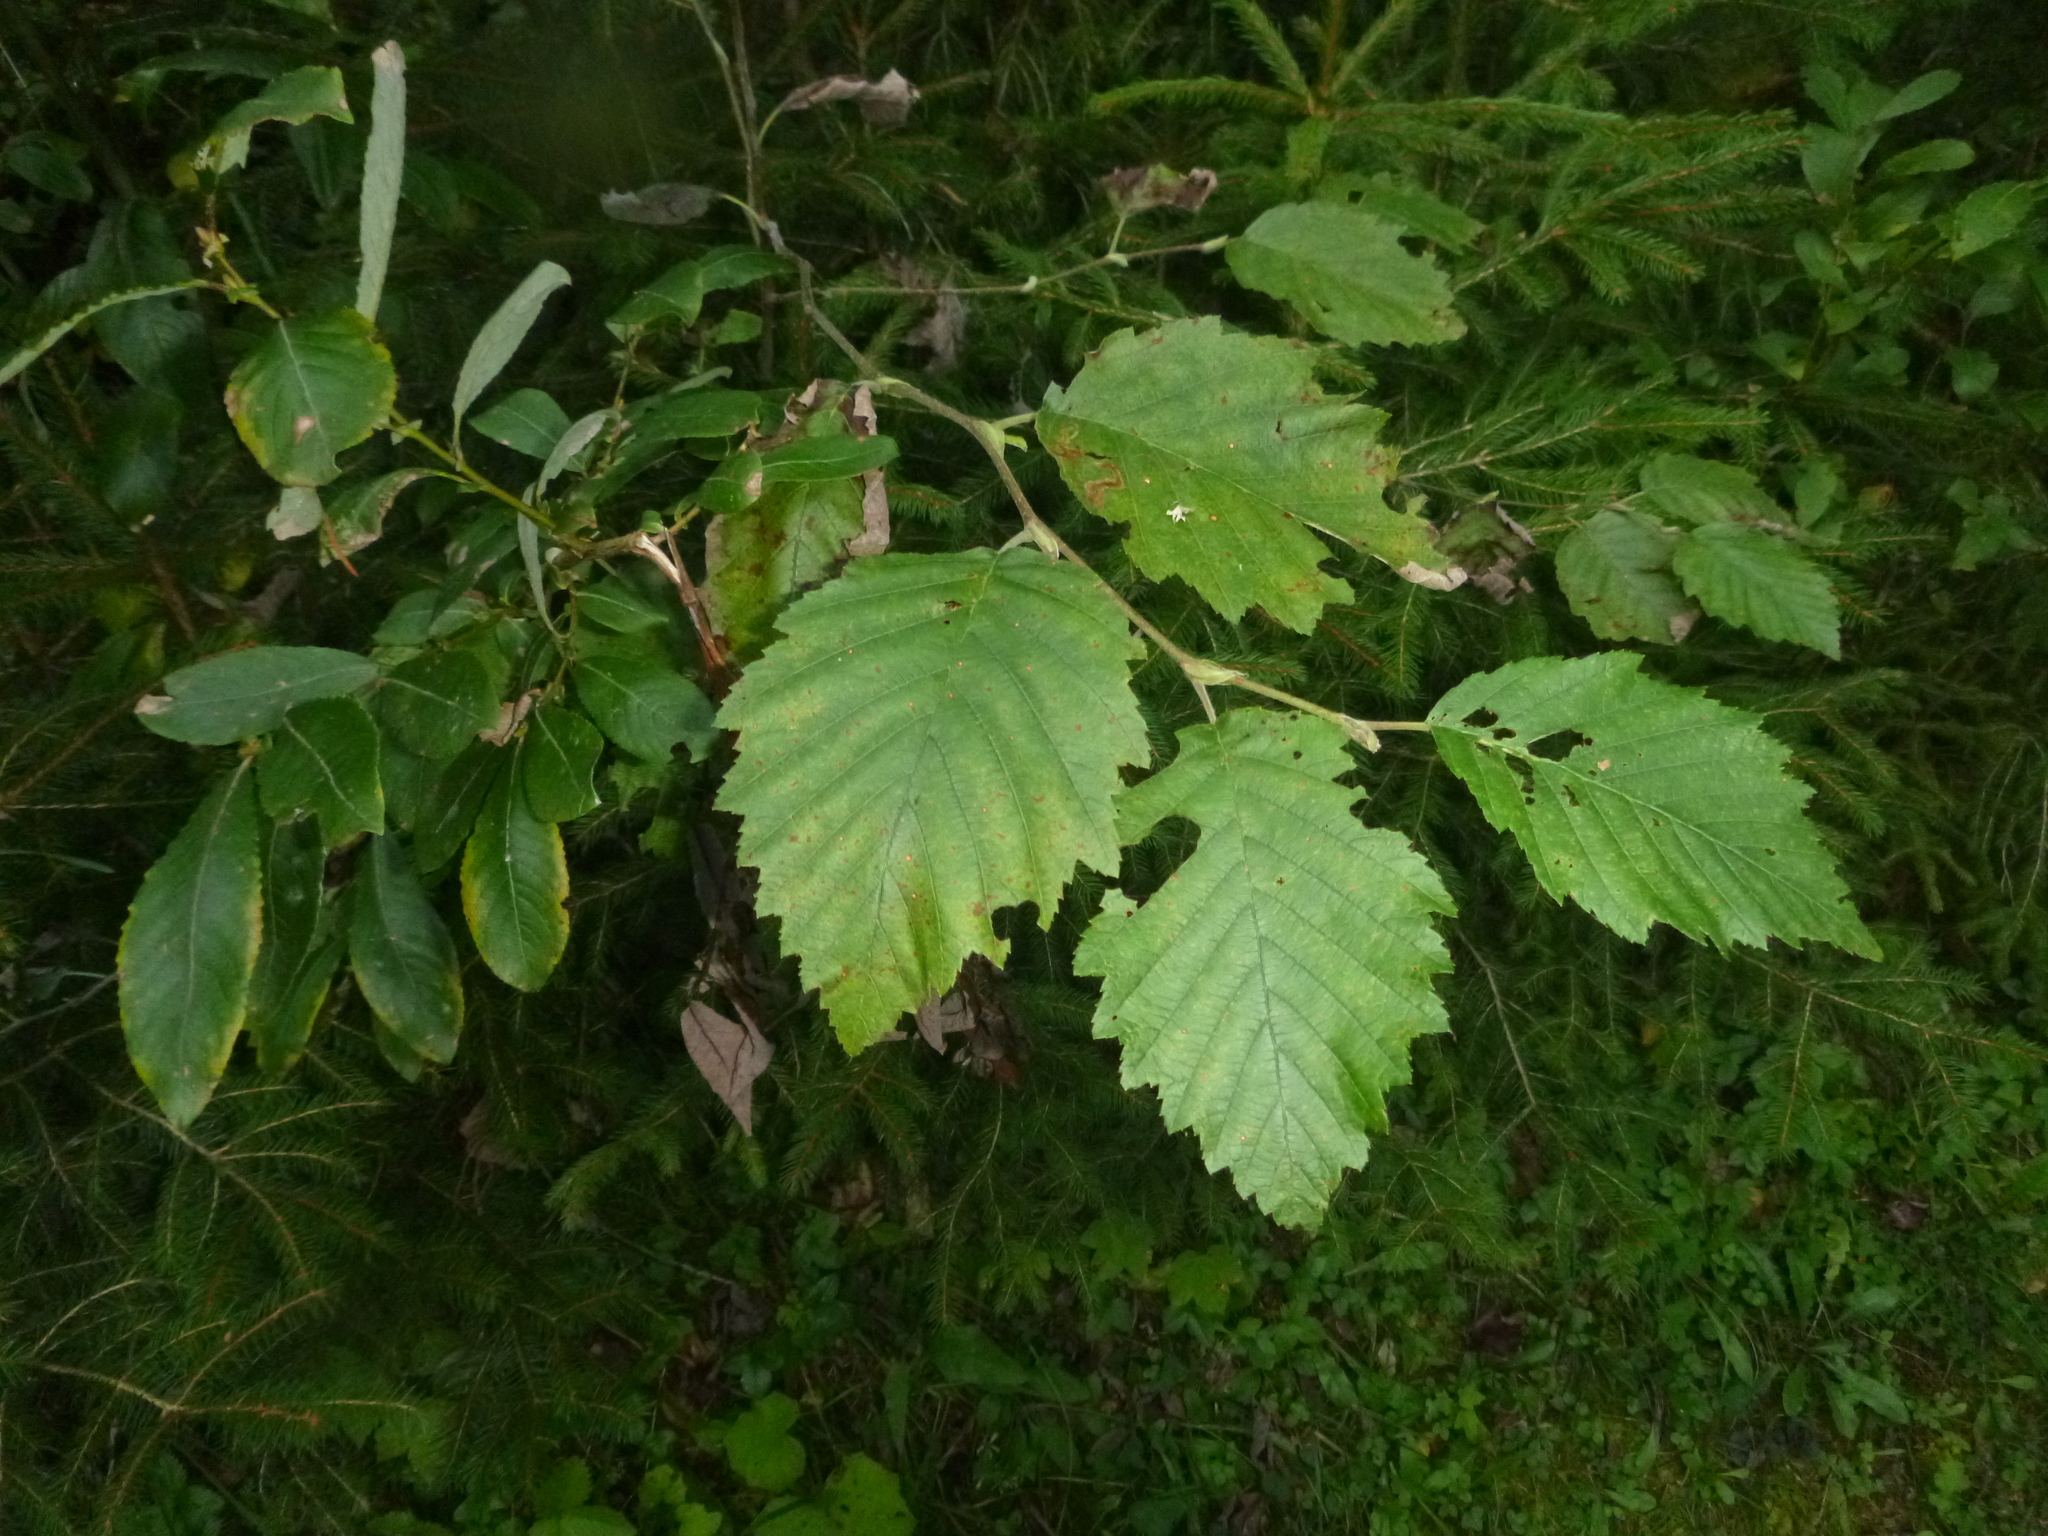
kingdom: Plantae
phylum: Tracheophyta
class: Magnoliopsida
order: Fagales
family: Betulaceae
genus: Alnus
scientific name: Alnus incana
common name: Grey alder
